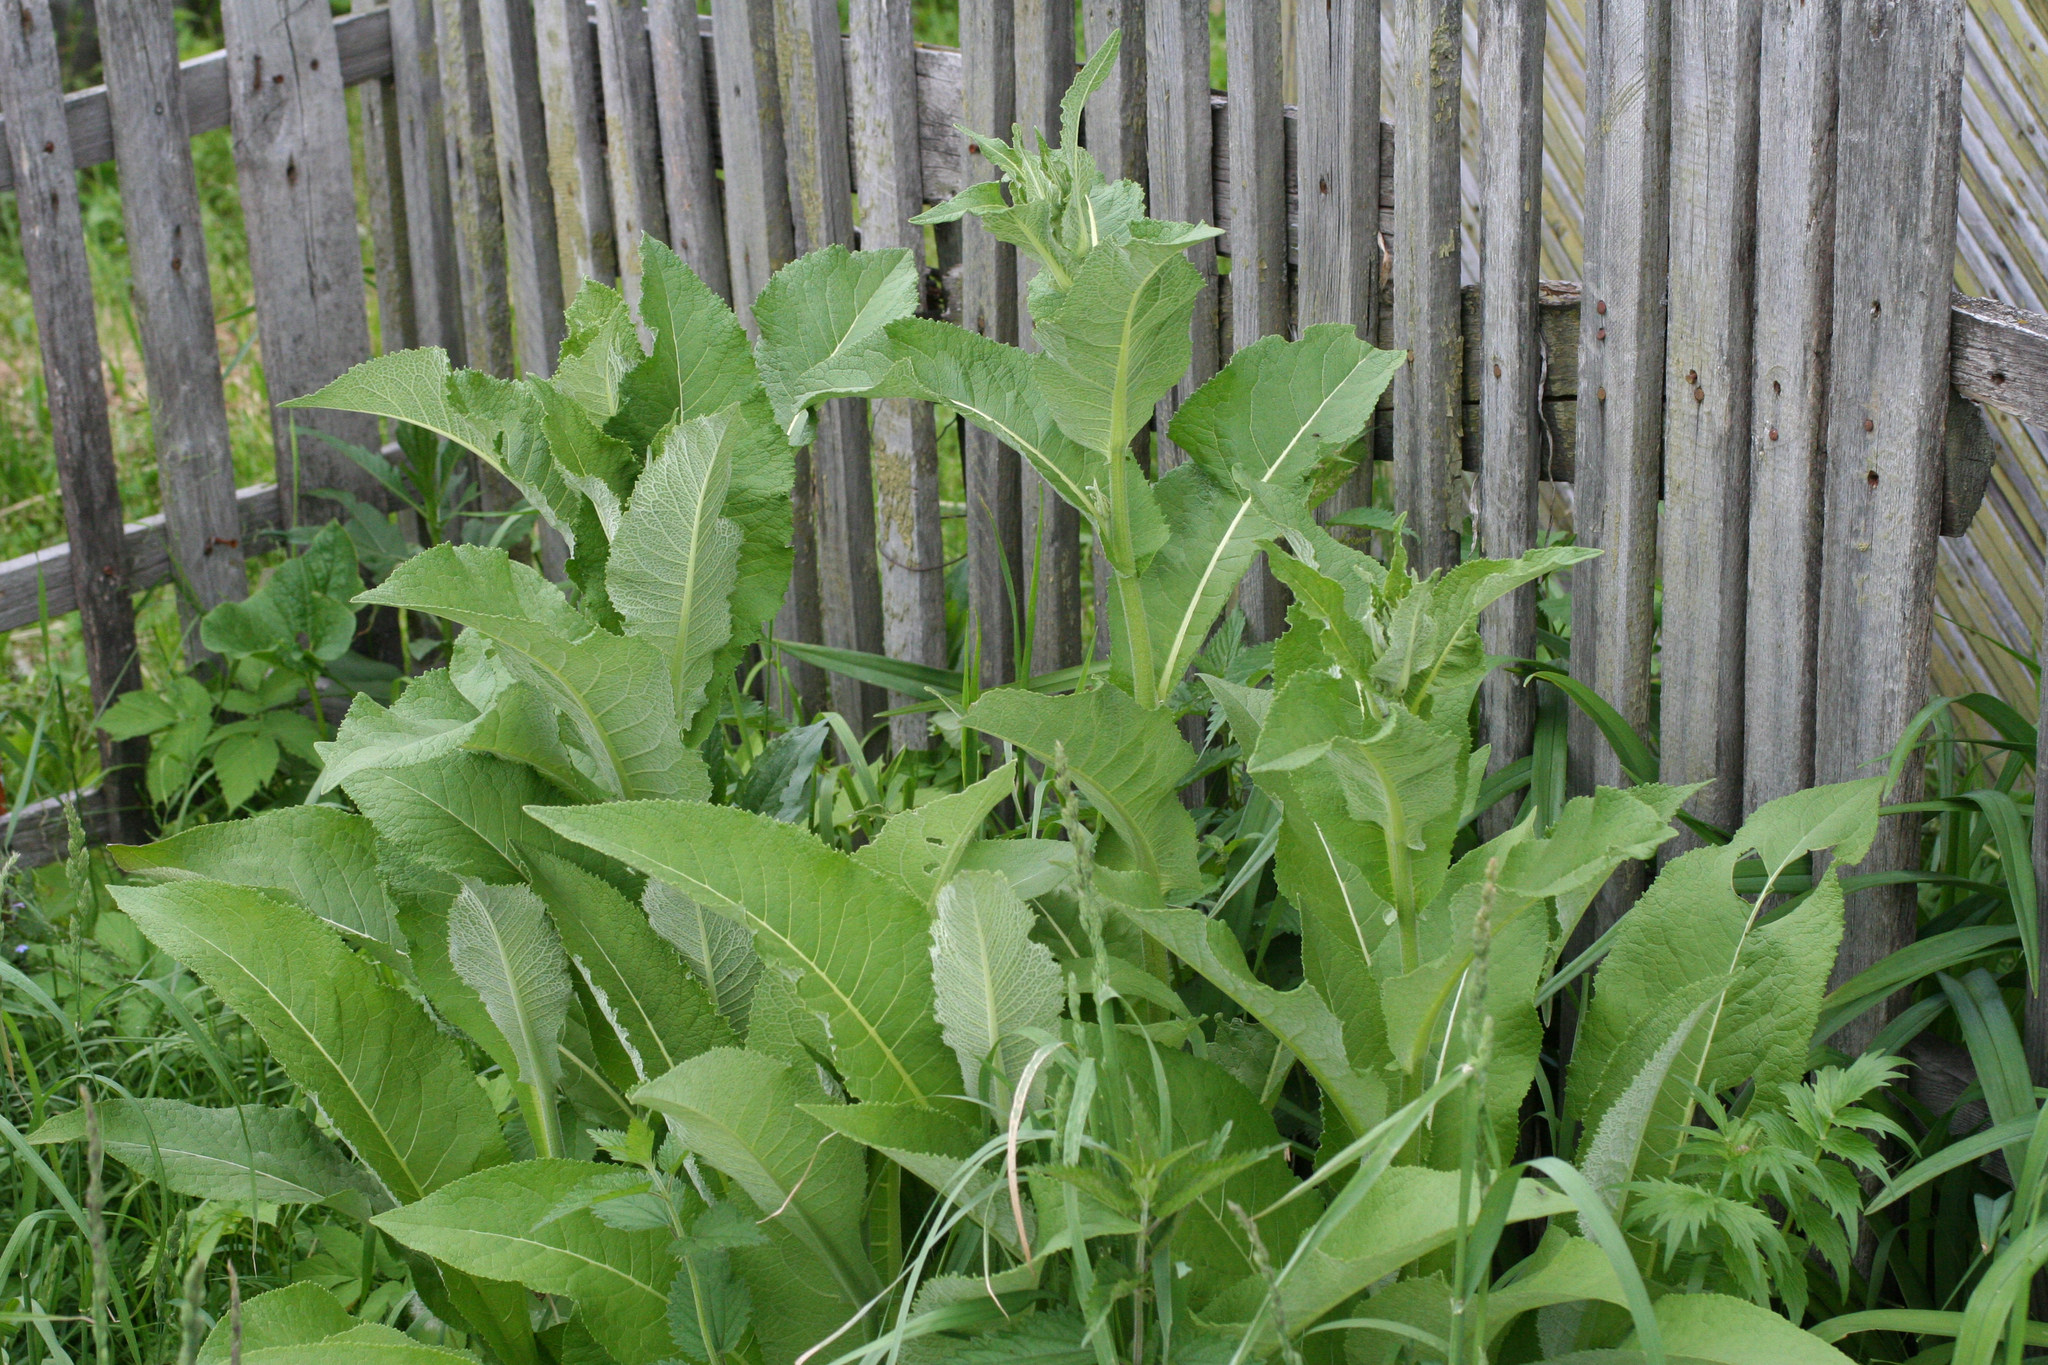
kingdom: Plantae
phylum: Tracheophyta
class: Magnoliopsida
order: Asterales
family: Asteraceae
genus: Inula
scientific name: Inula helenium
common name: Elecampane
